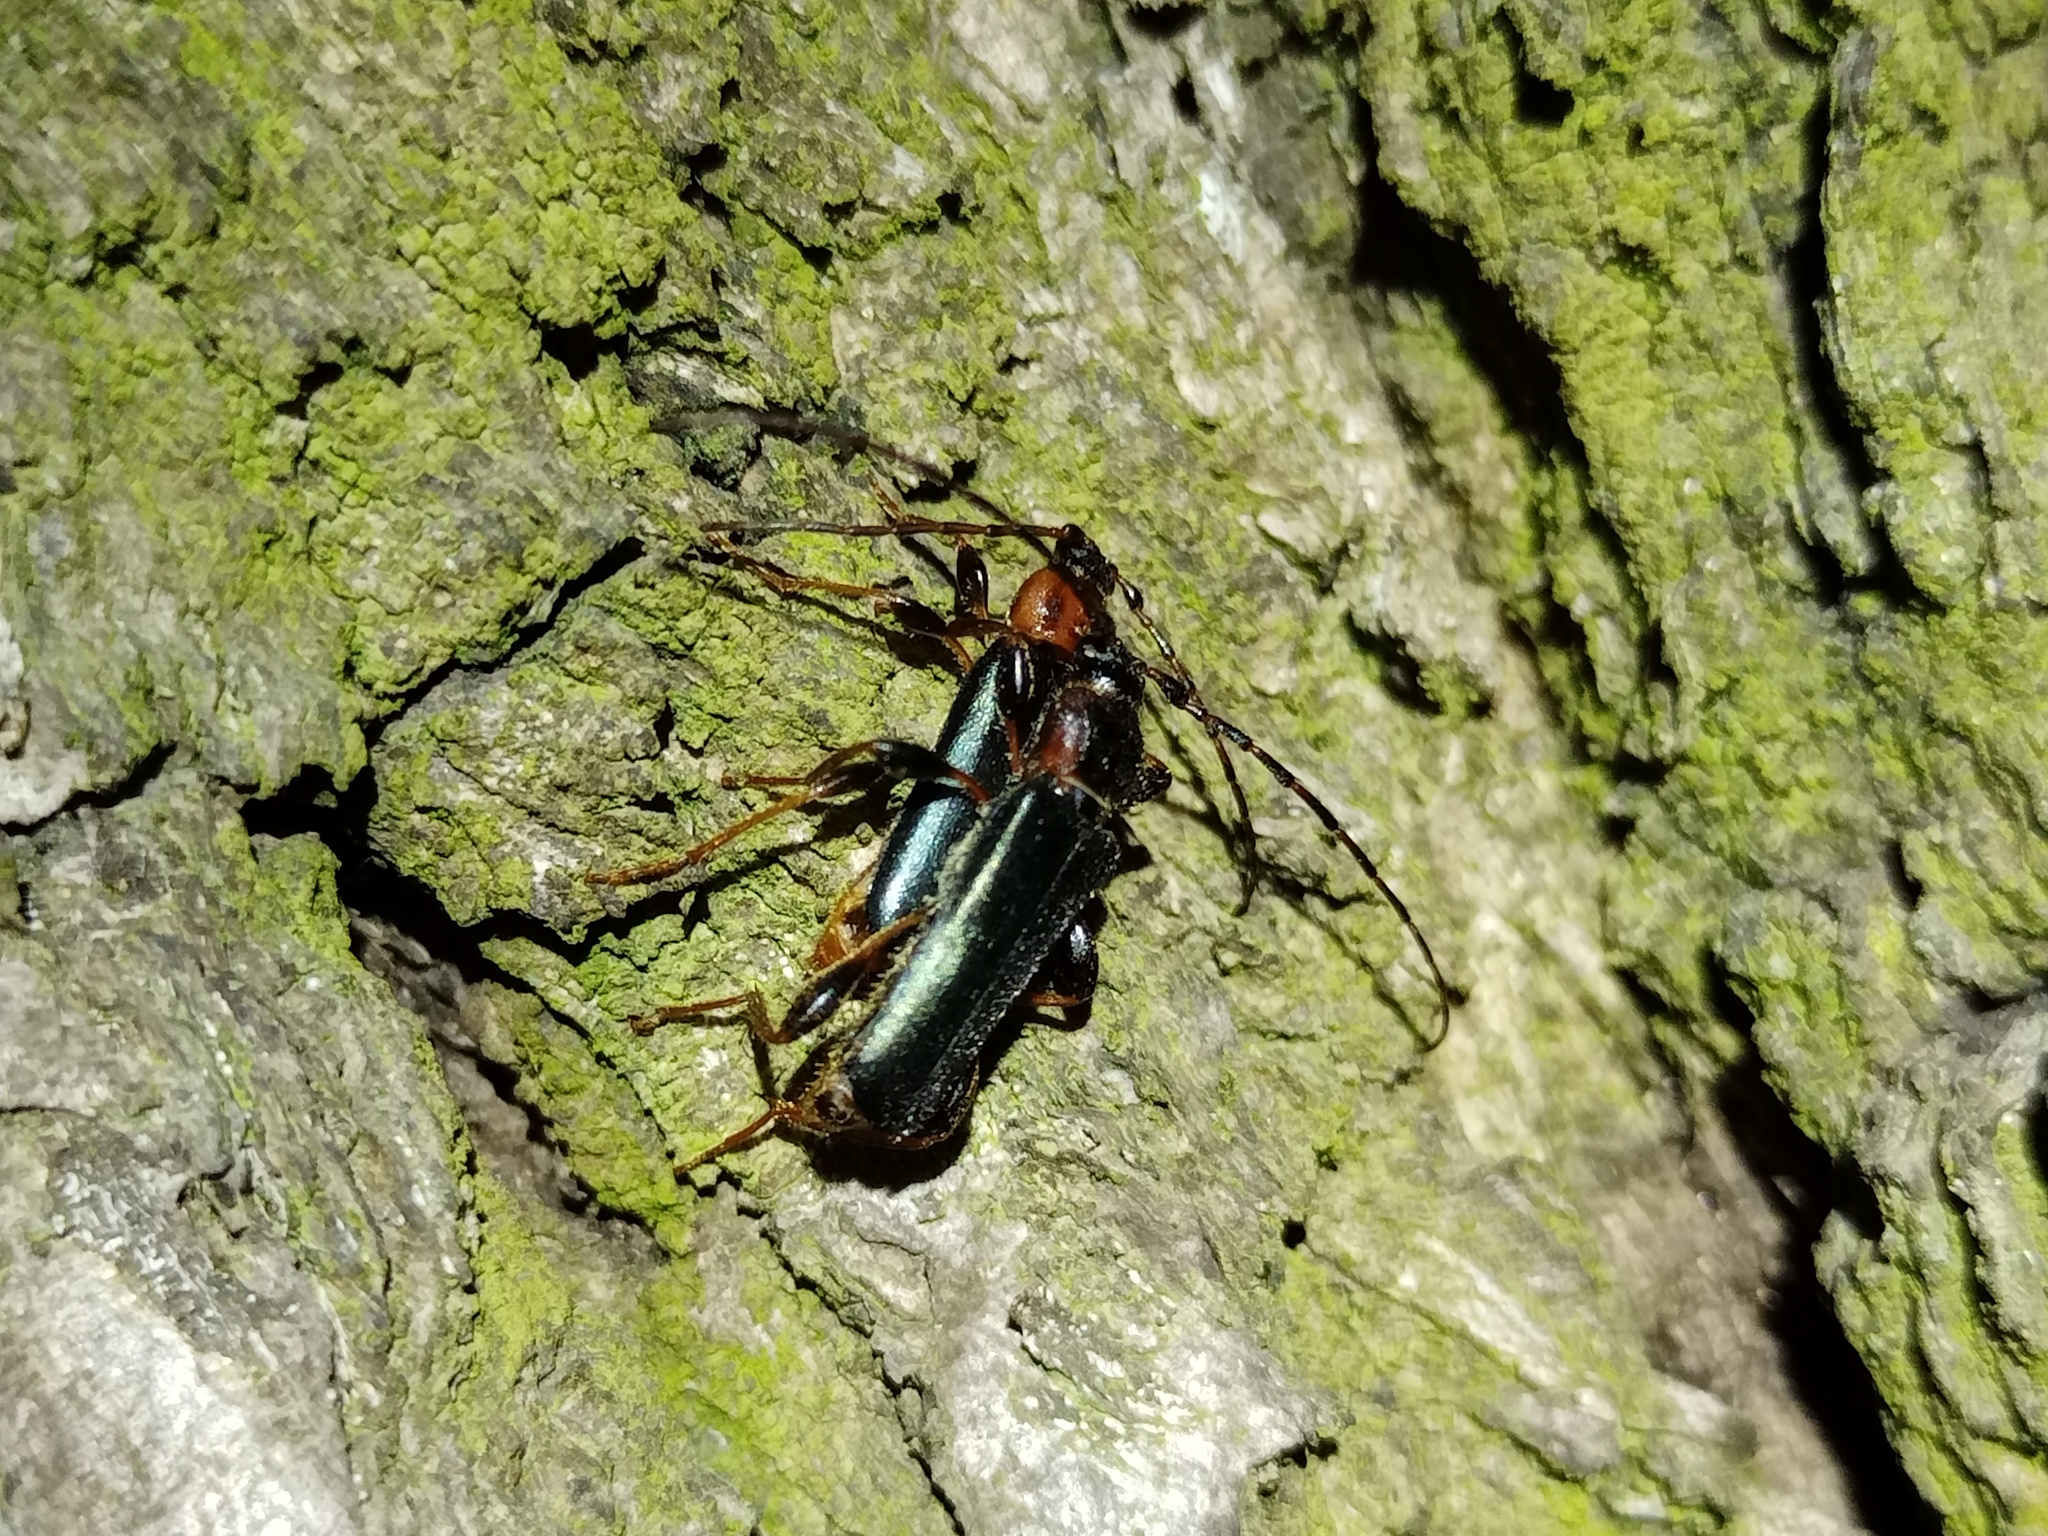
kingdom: Animalia
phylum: Arthropoda
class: Insecta
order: Coleoptera
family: Cerambycidae
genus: Phymatodes
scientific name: Phymatodes testaceus
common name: Long-horned beetle
